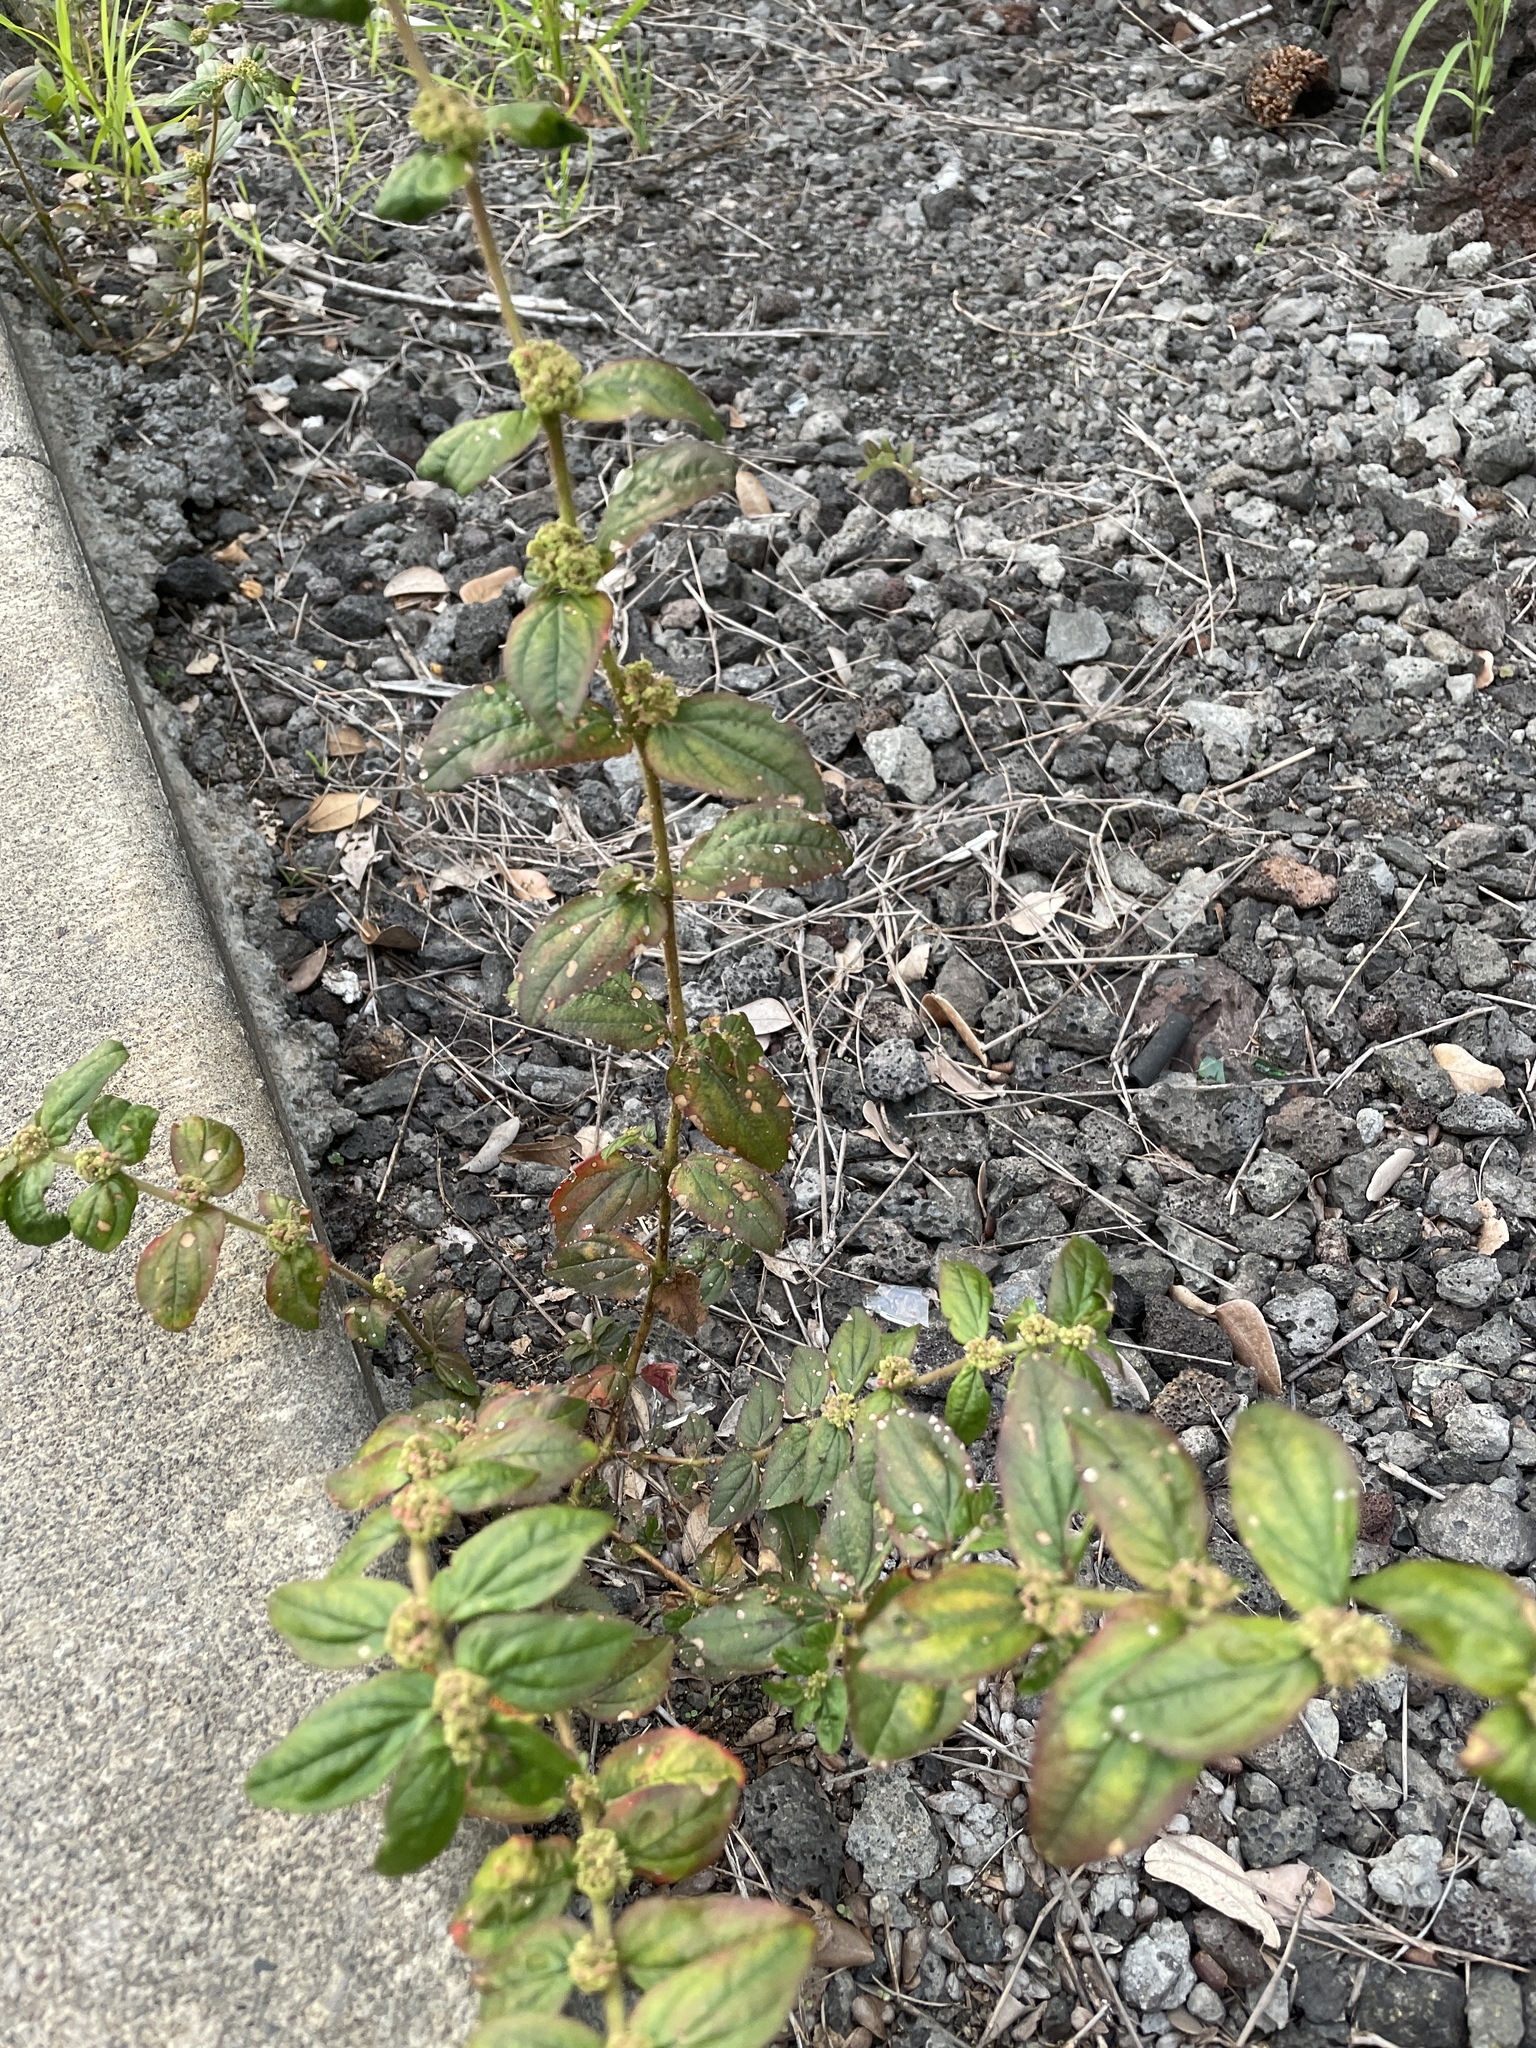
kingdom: Plantae
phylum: Tracheophyta
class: Magnoliopsida
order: Malpighiales
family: Euphorbiaceae
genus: Euphorbia
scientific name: Euphorbia hirta
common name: Pillpod sandmat
